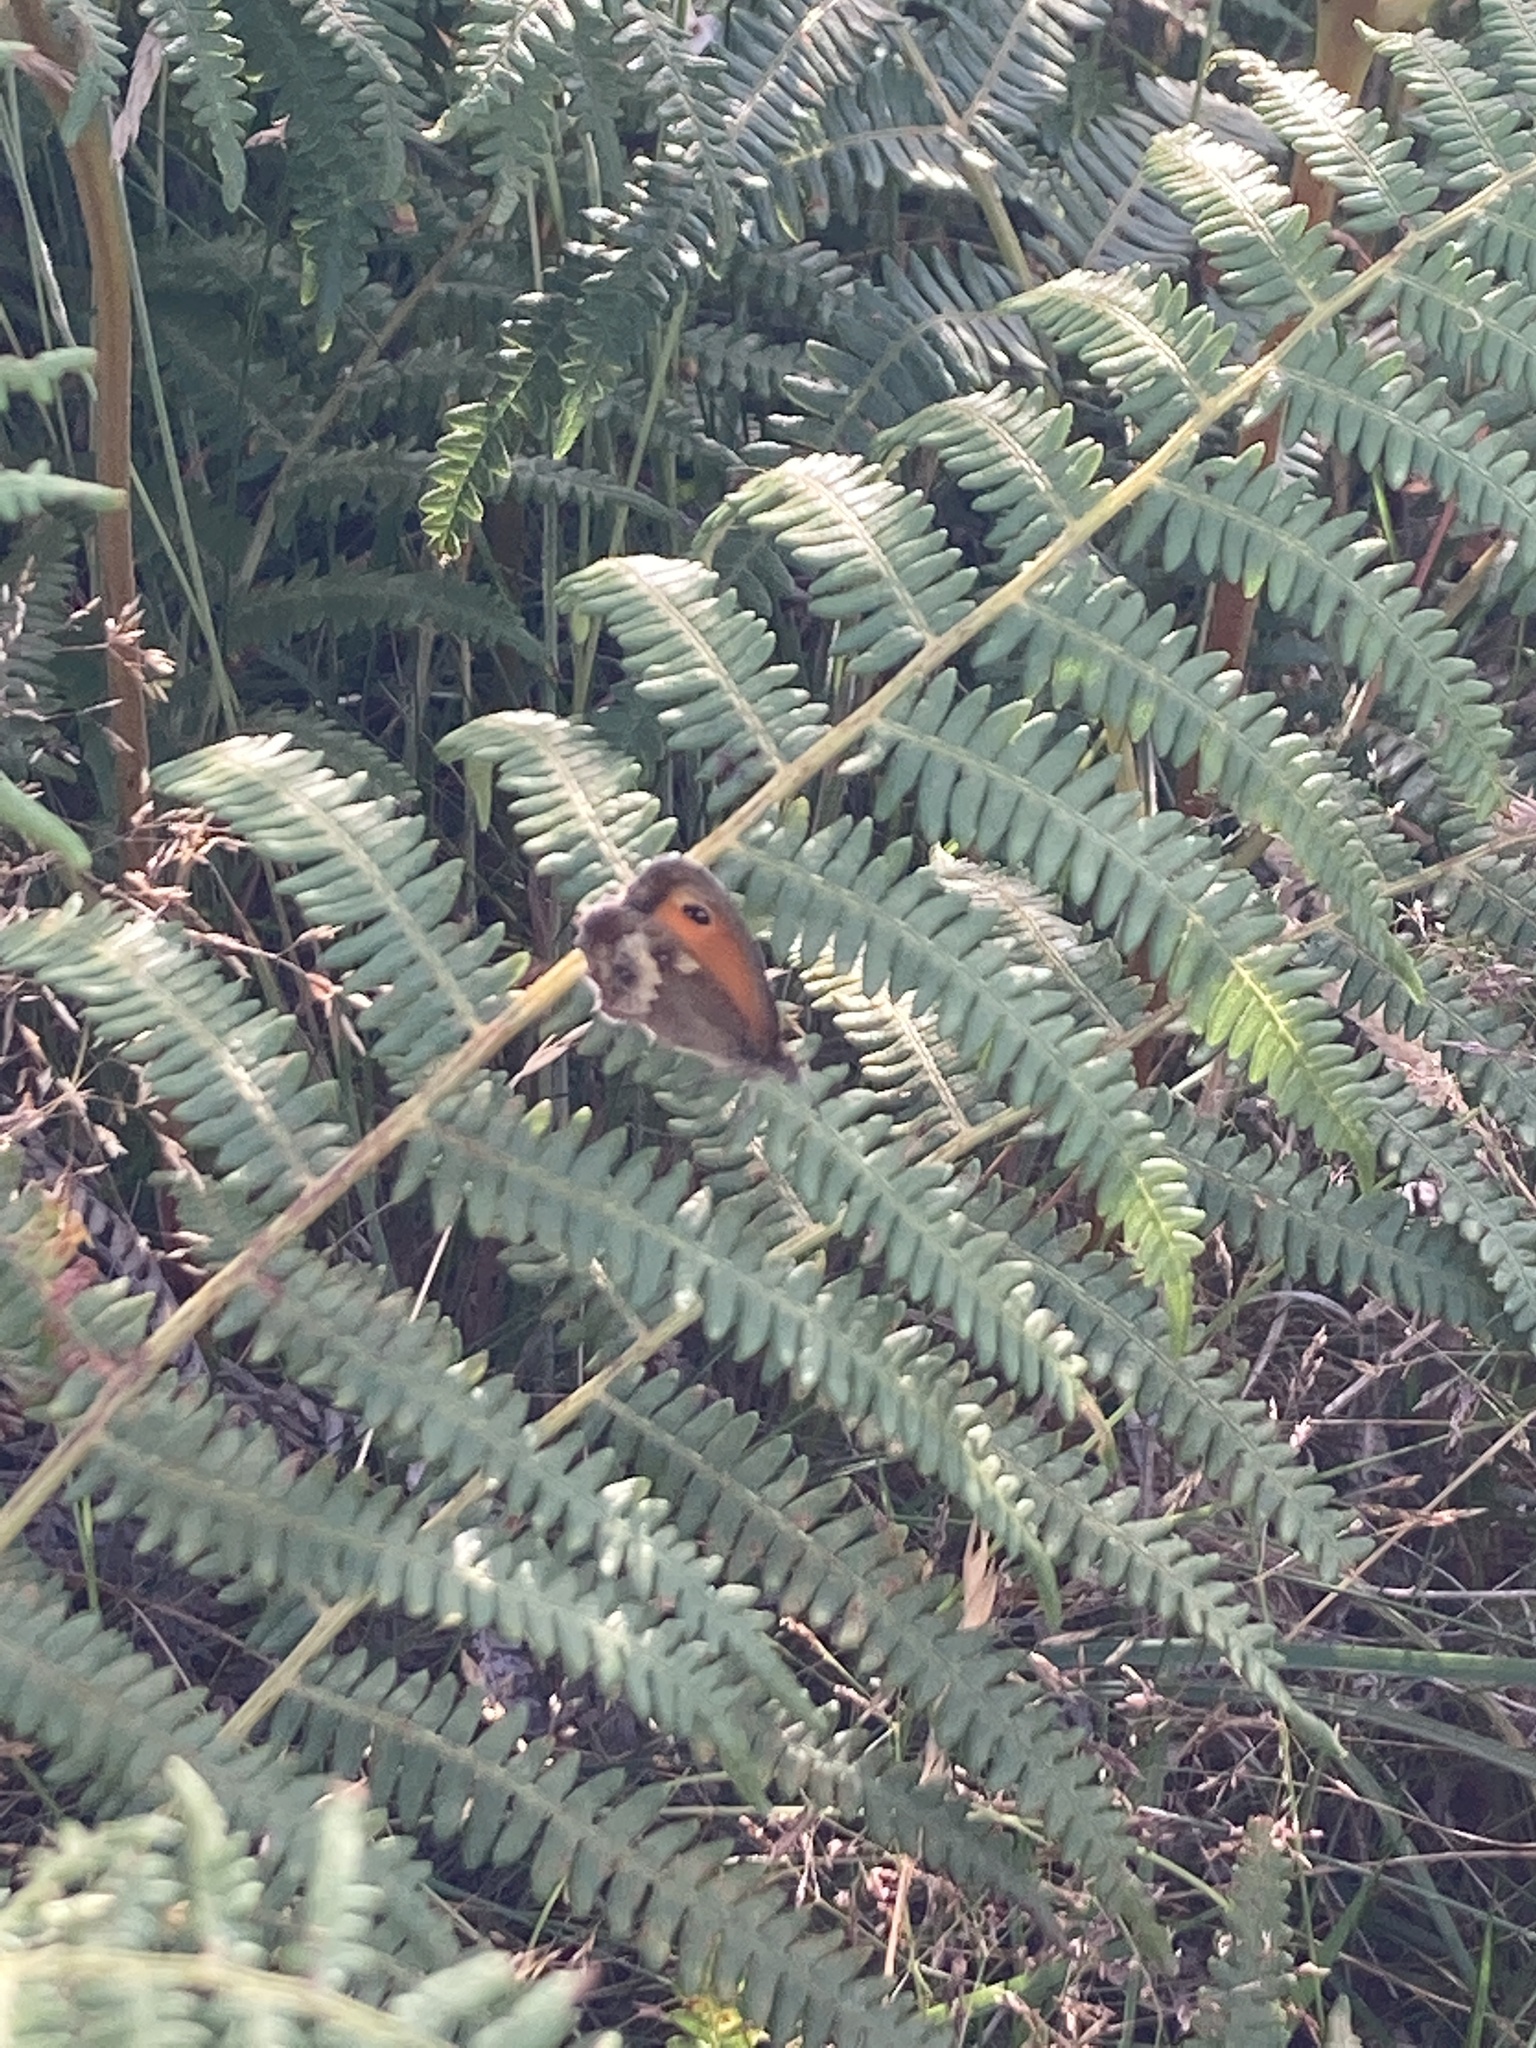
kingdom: Animalia
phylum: Arthropoda
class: Insecta
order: Lepidoptera
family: Nymphalidae
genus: Pyronia
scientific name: Pyronia tithonus
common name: Gatekeeper
